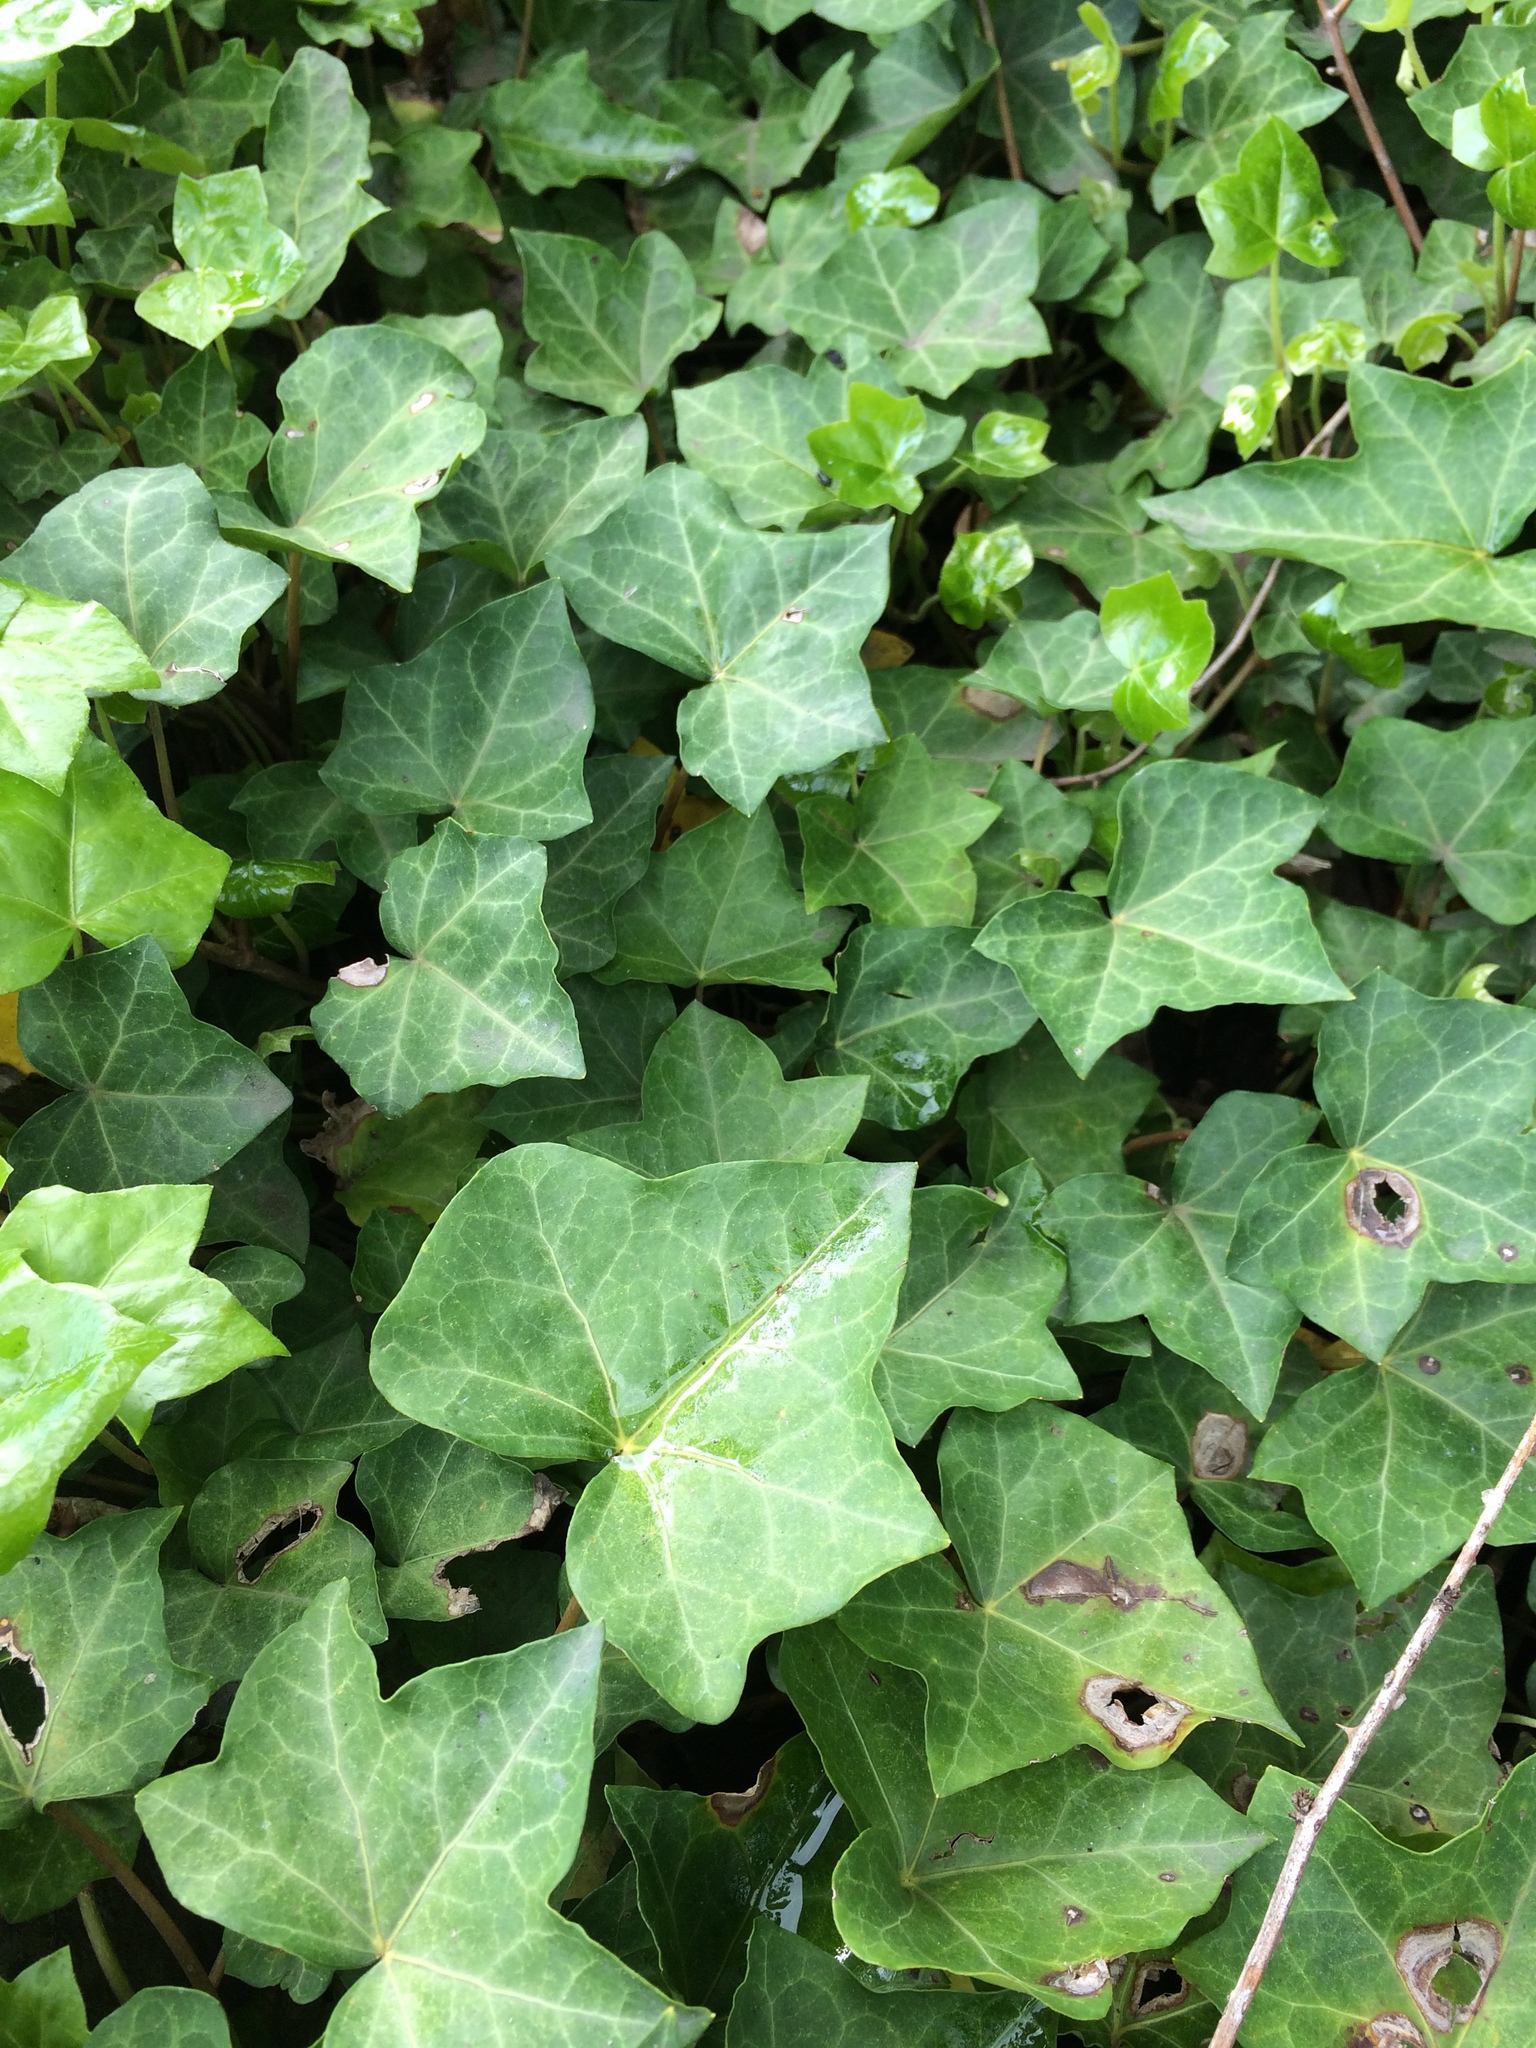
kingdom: Plantae
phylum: Tracheophyta
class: Magnoliopsida
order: Apiales
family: Araliaceae
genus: Hedera
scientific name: Hedera helix
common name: Ivy
